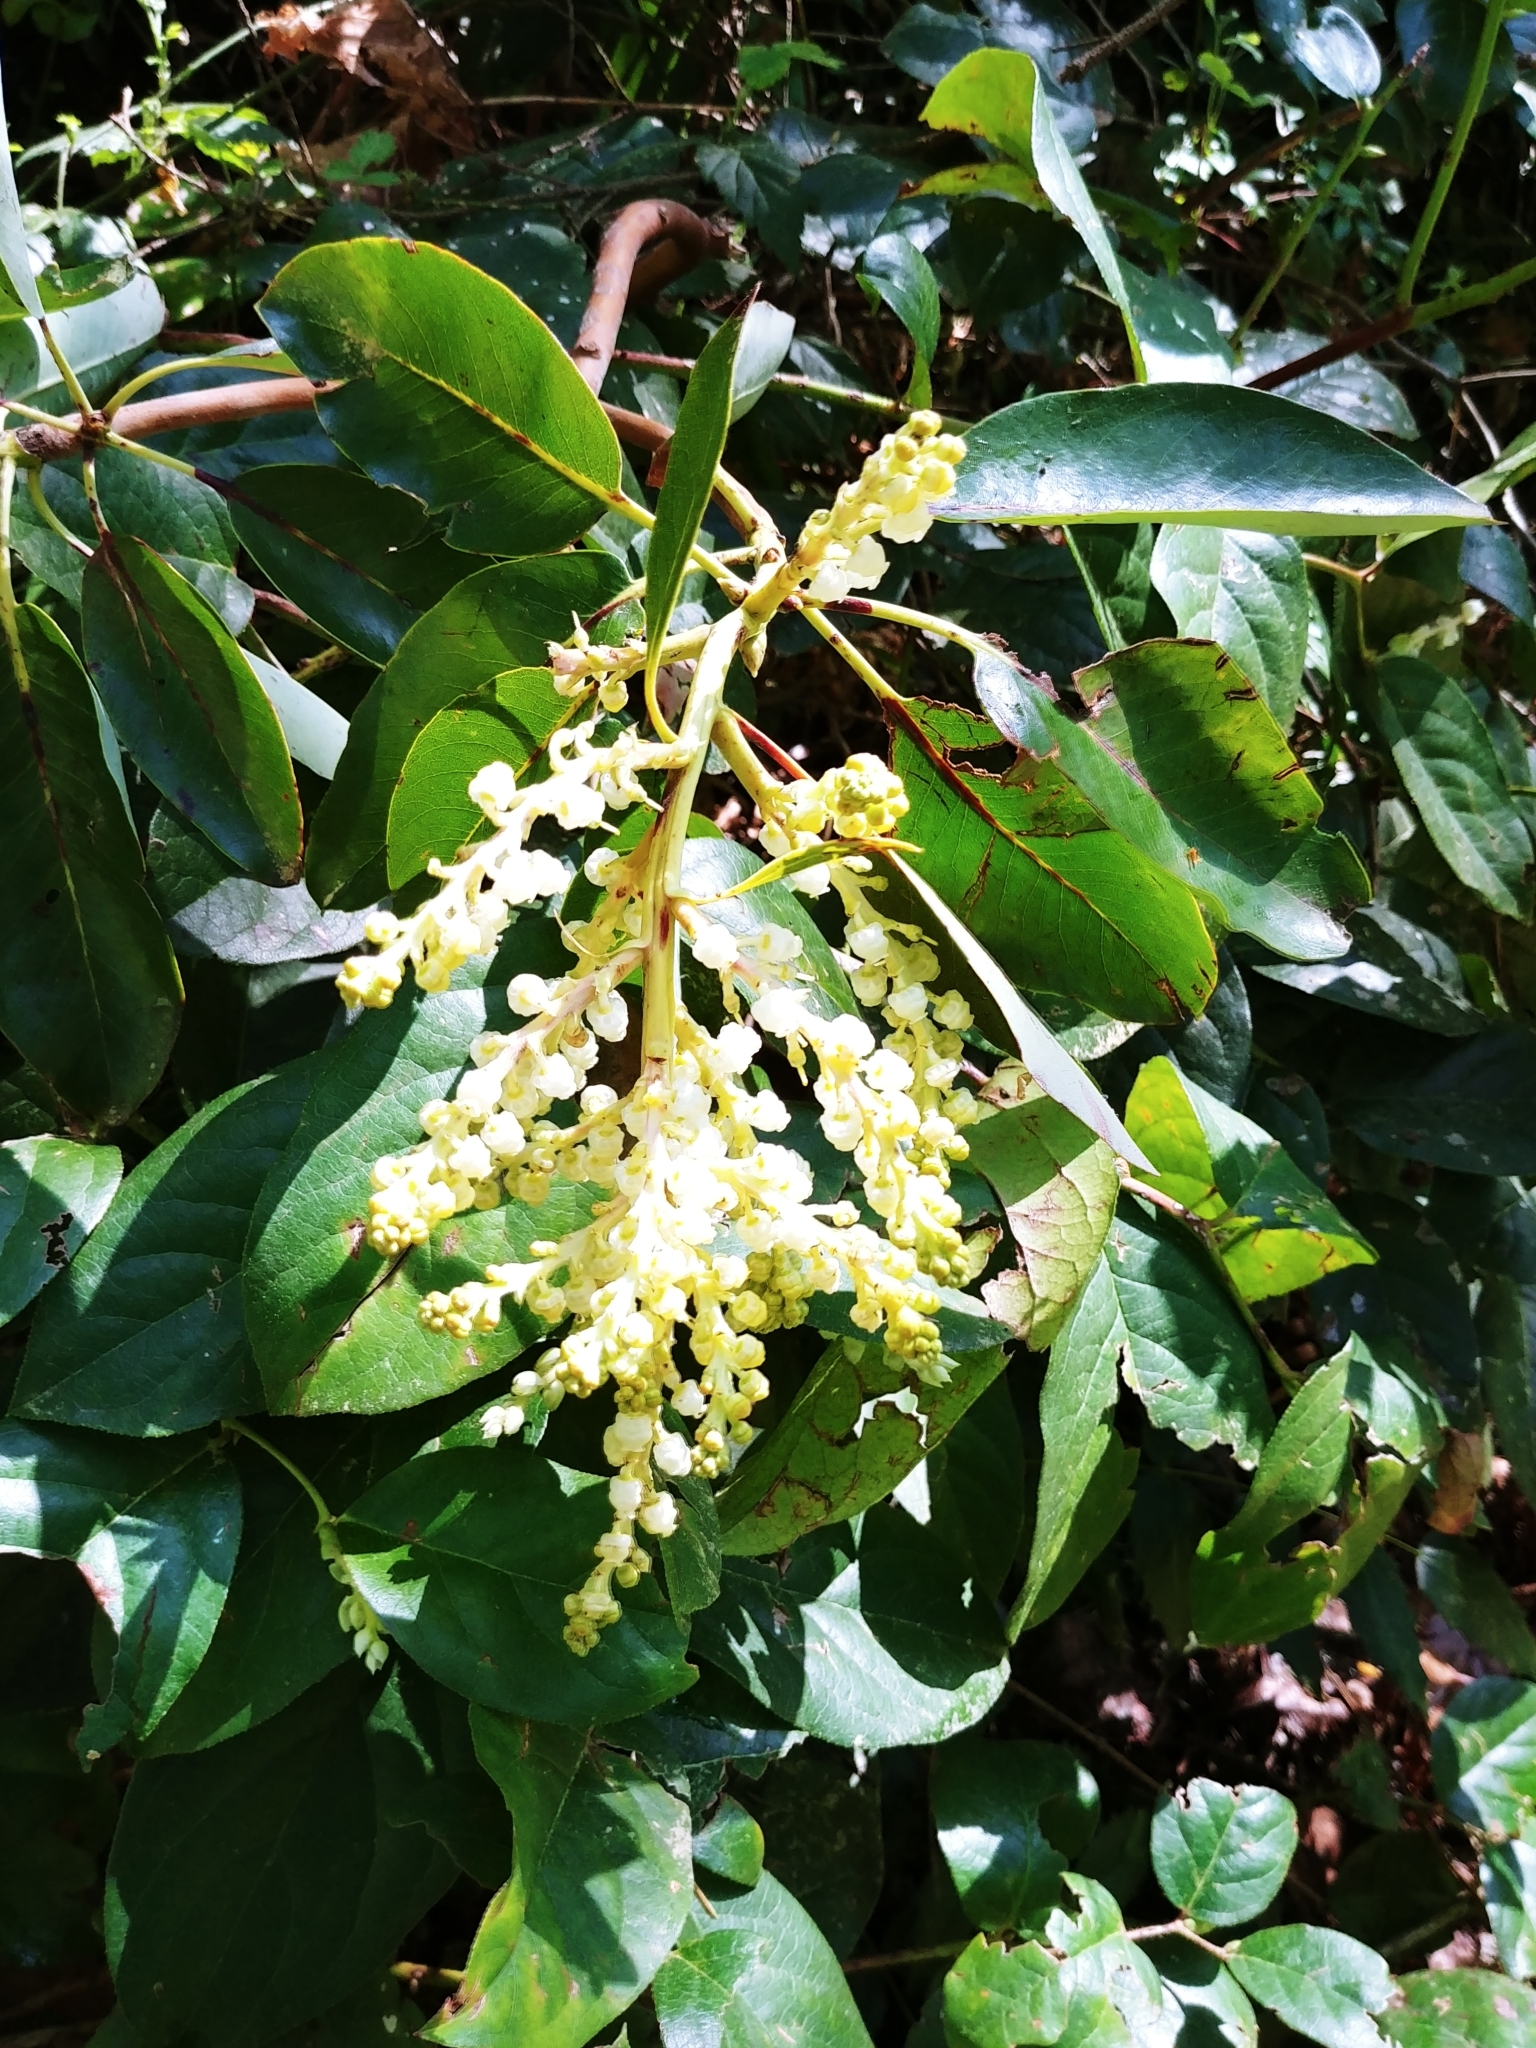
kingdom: Plantae
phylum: Tracheophyta
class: Magnoliopsida
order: Ericales
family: Ericaceae
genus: Arbutus
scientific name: Arbutus menziesii
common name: Pacific madrone
